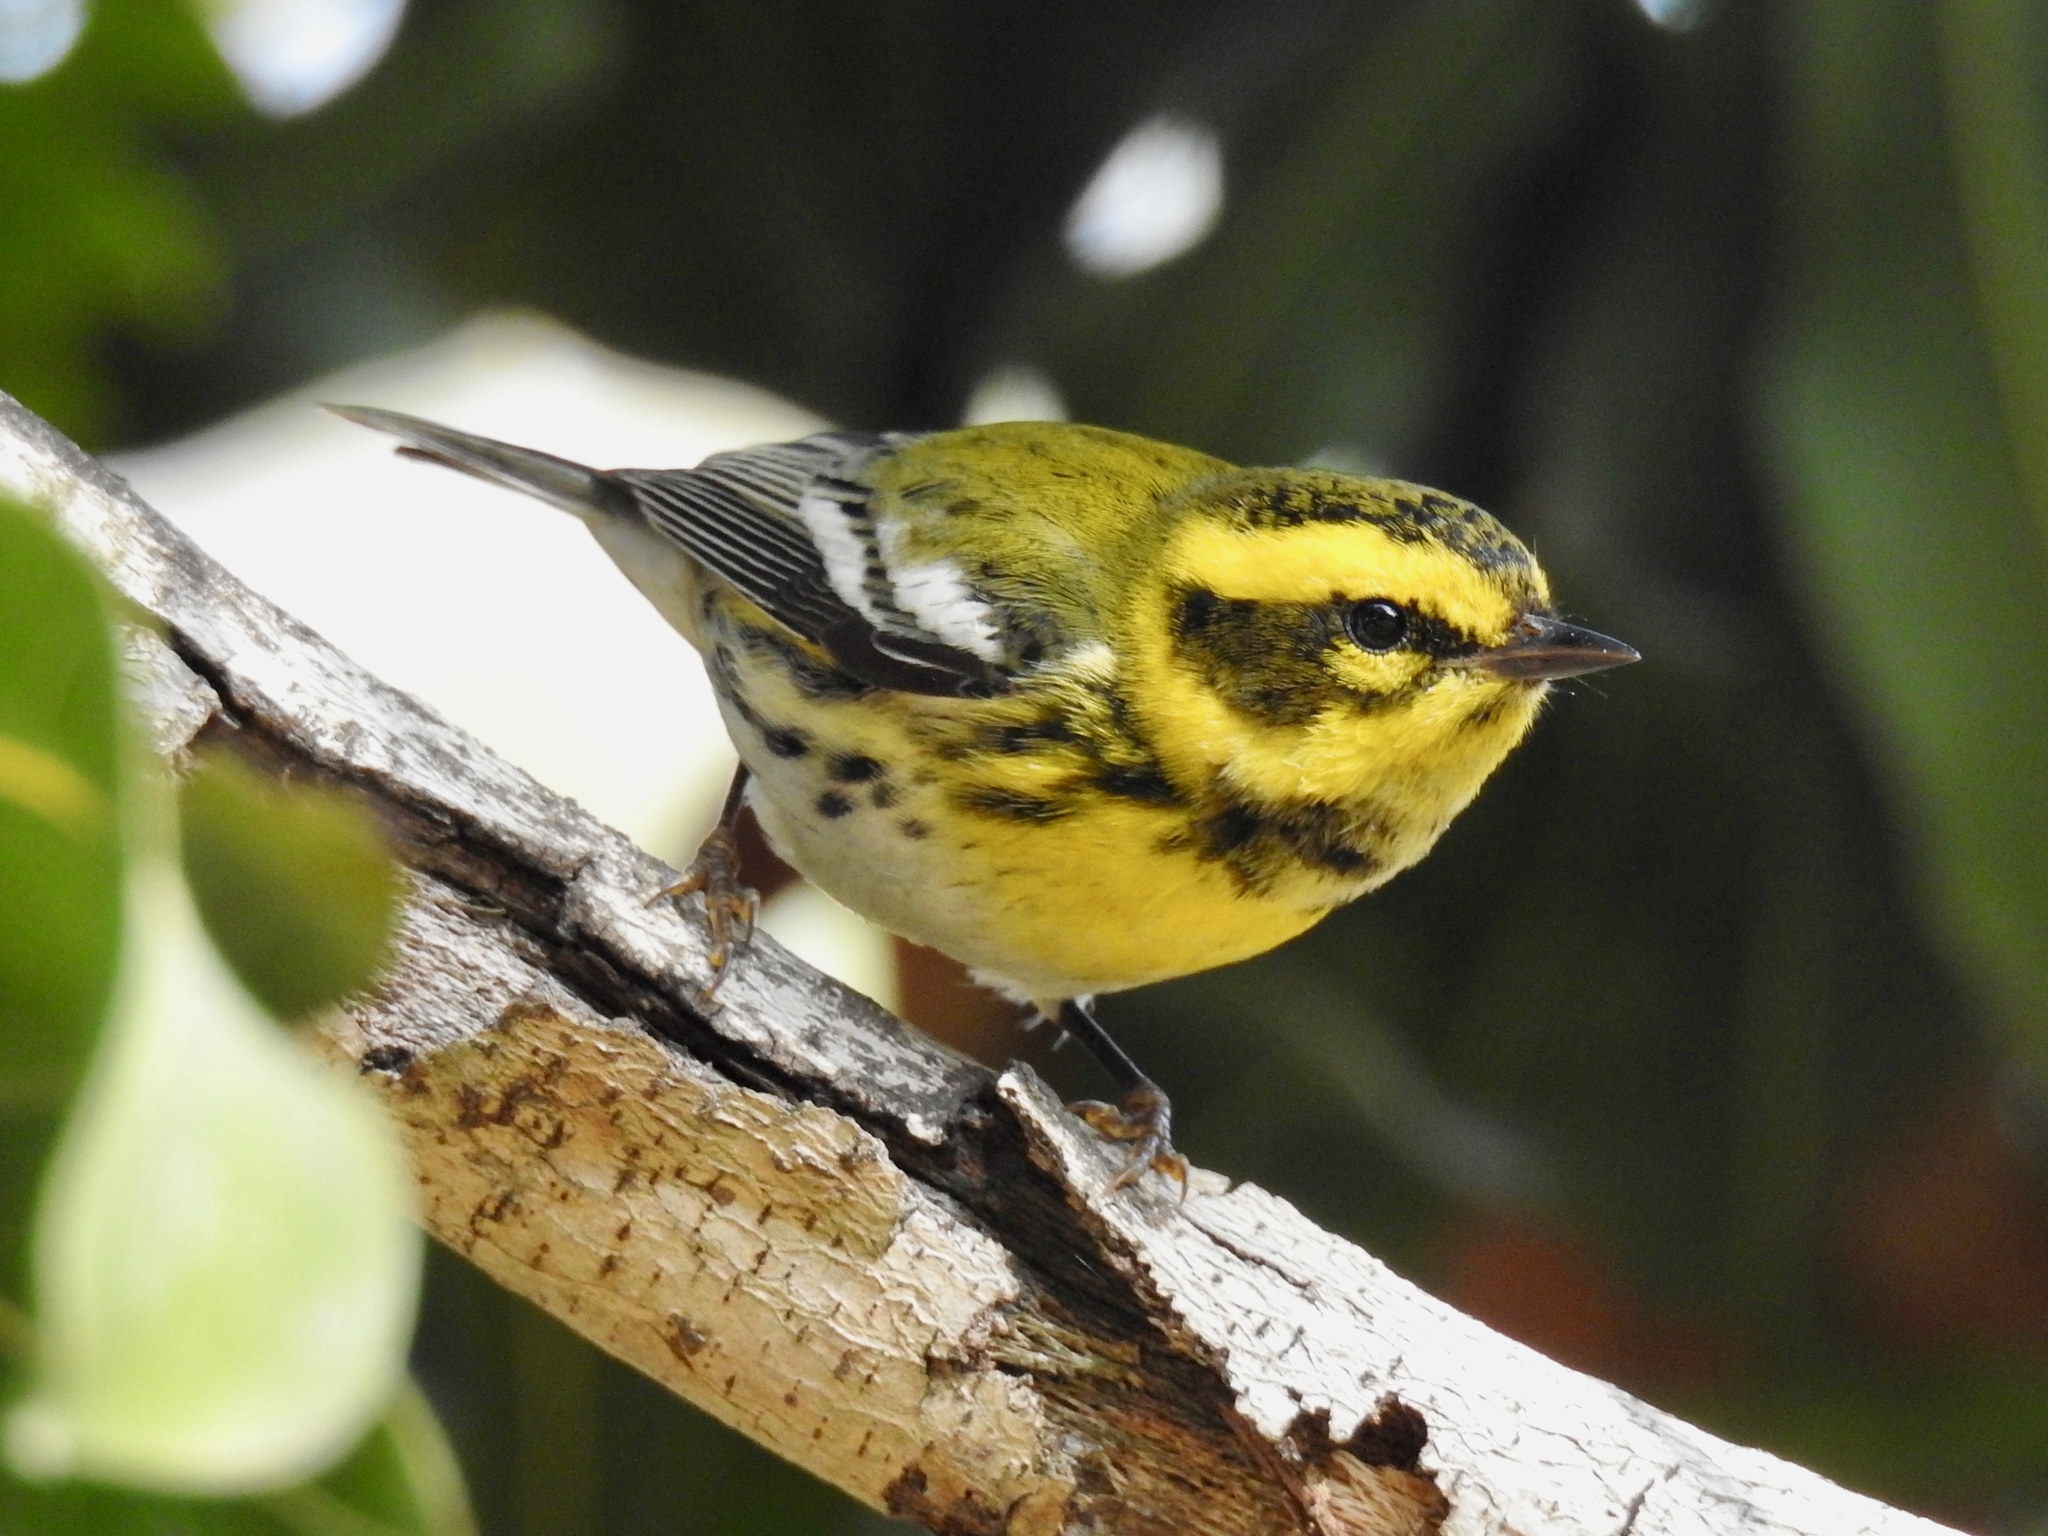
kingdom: Animalia
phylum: Chordata
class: Aves
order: Passeriformes
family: Parulidae
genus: Setophaga
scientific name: Setophaga townsendi
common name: Townsend's warbler
